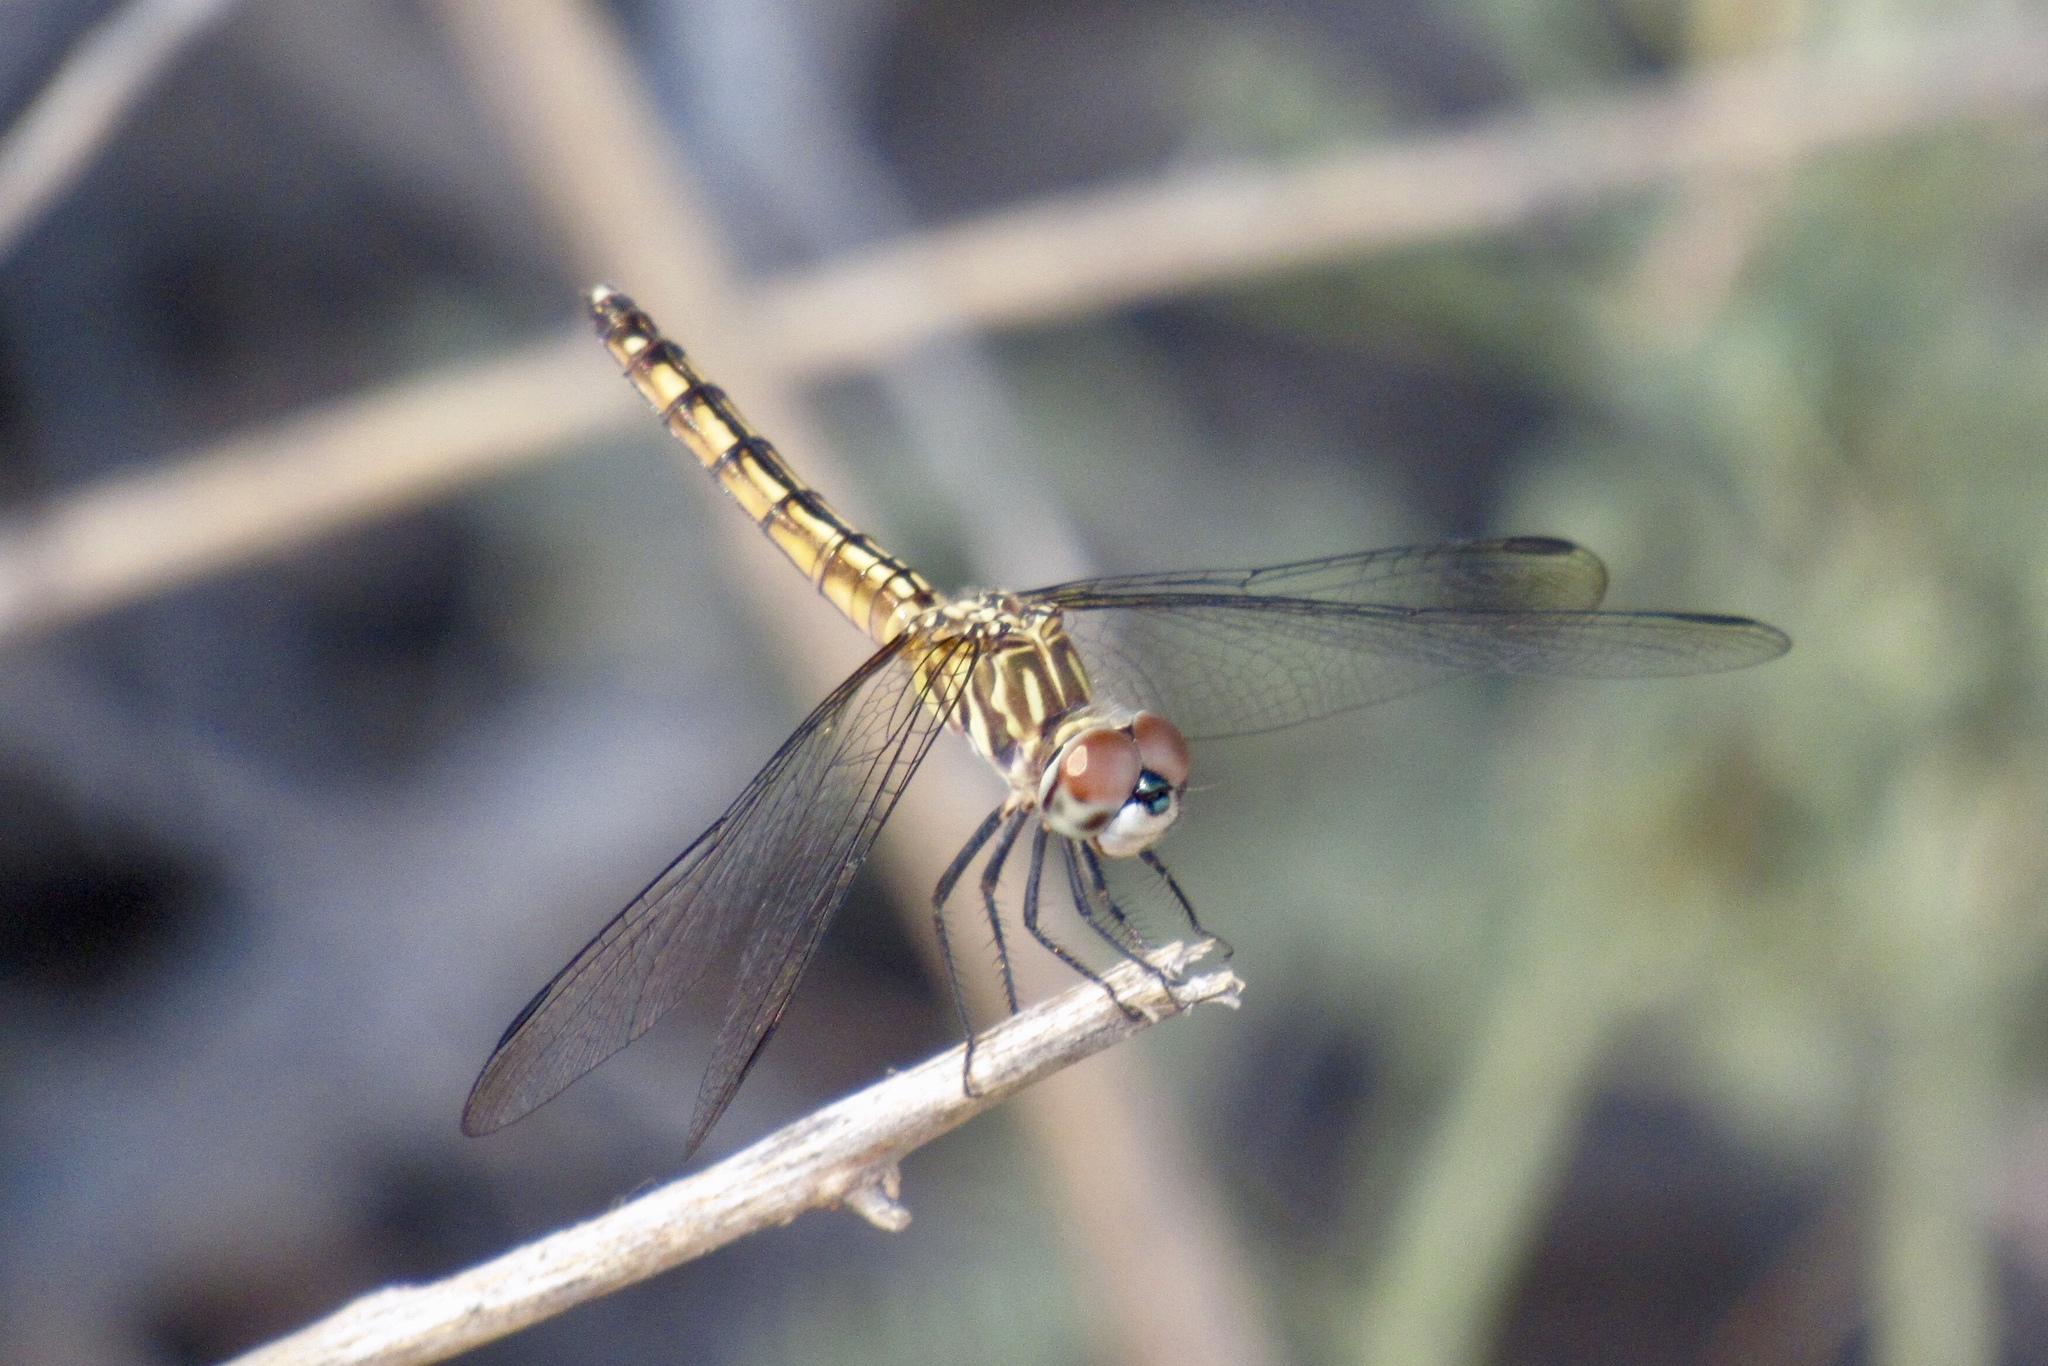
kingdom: Animalia
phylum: Arthropoda
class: Insecta
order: Odonata
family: Libellulidae
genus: Pachydiplax
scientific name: Pachydiplax longipennis
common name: Blue dasher
